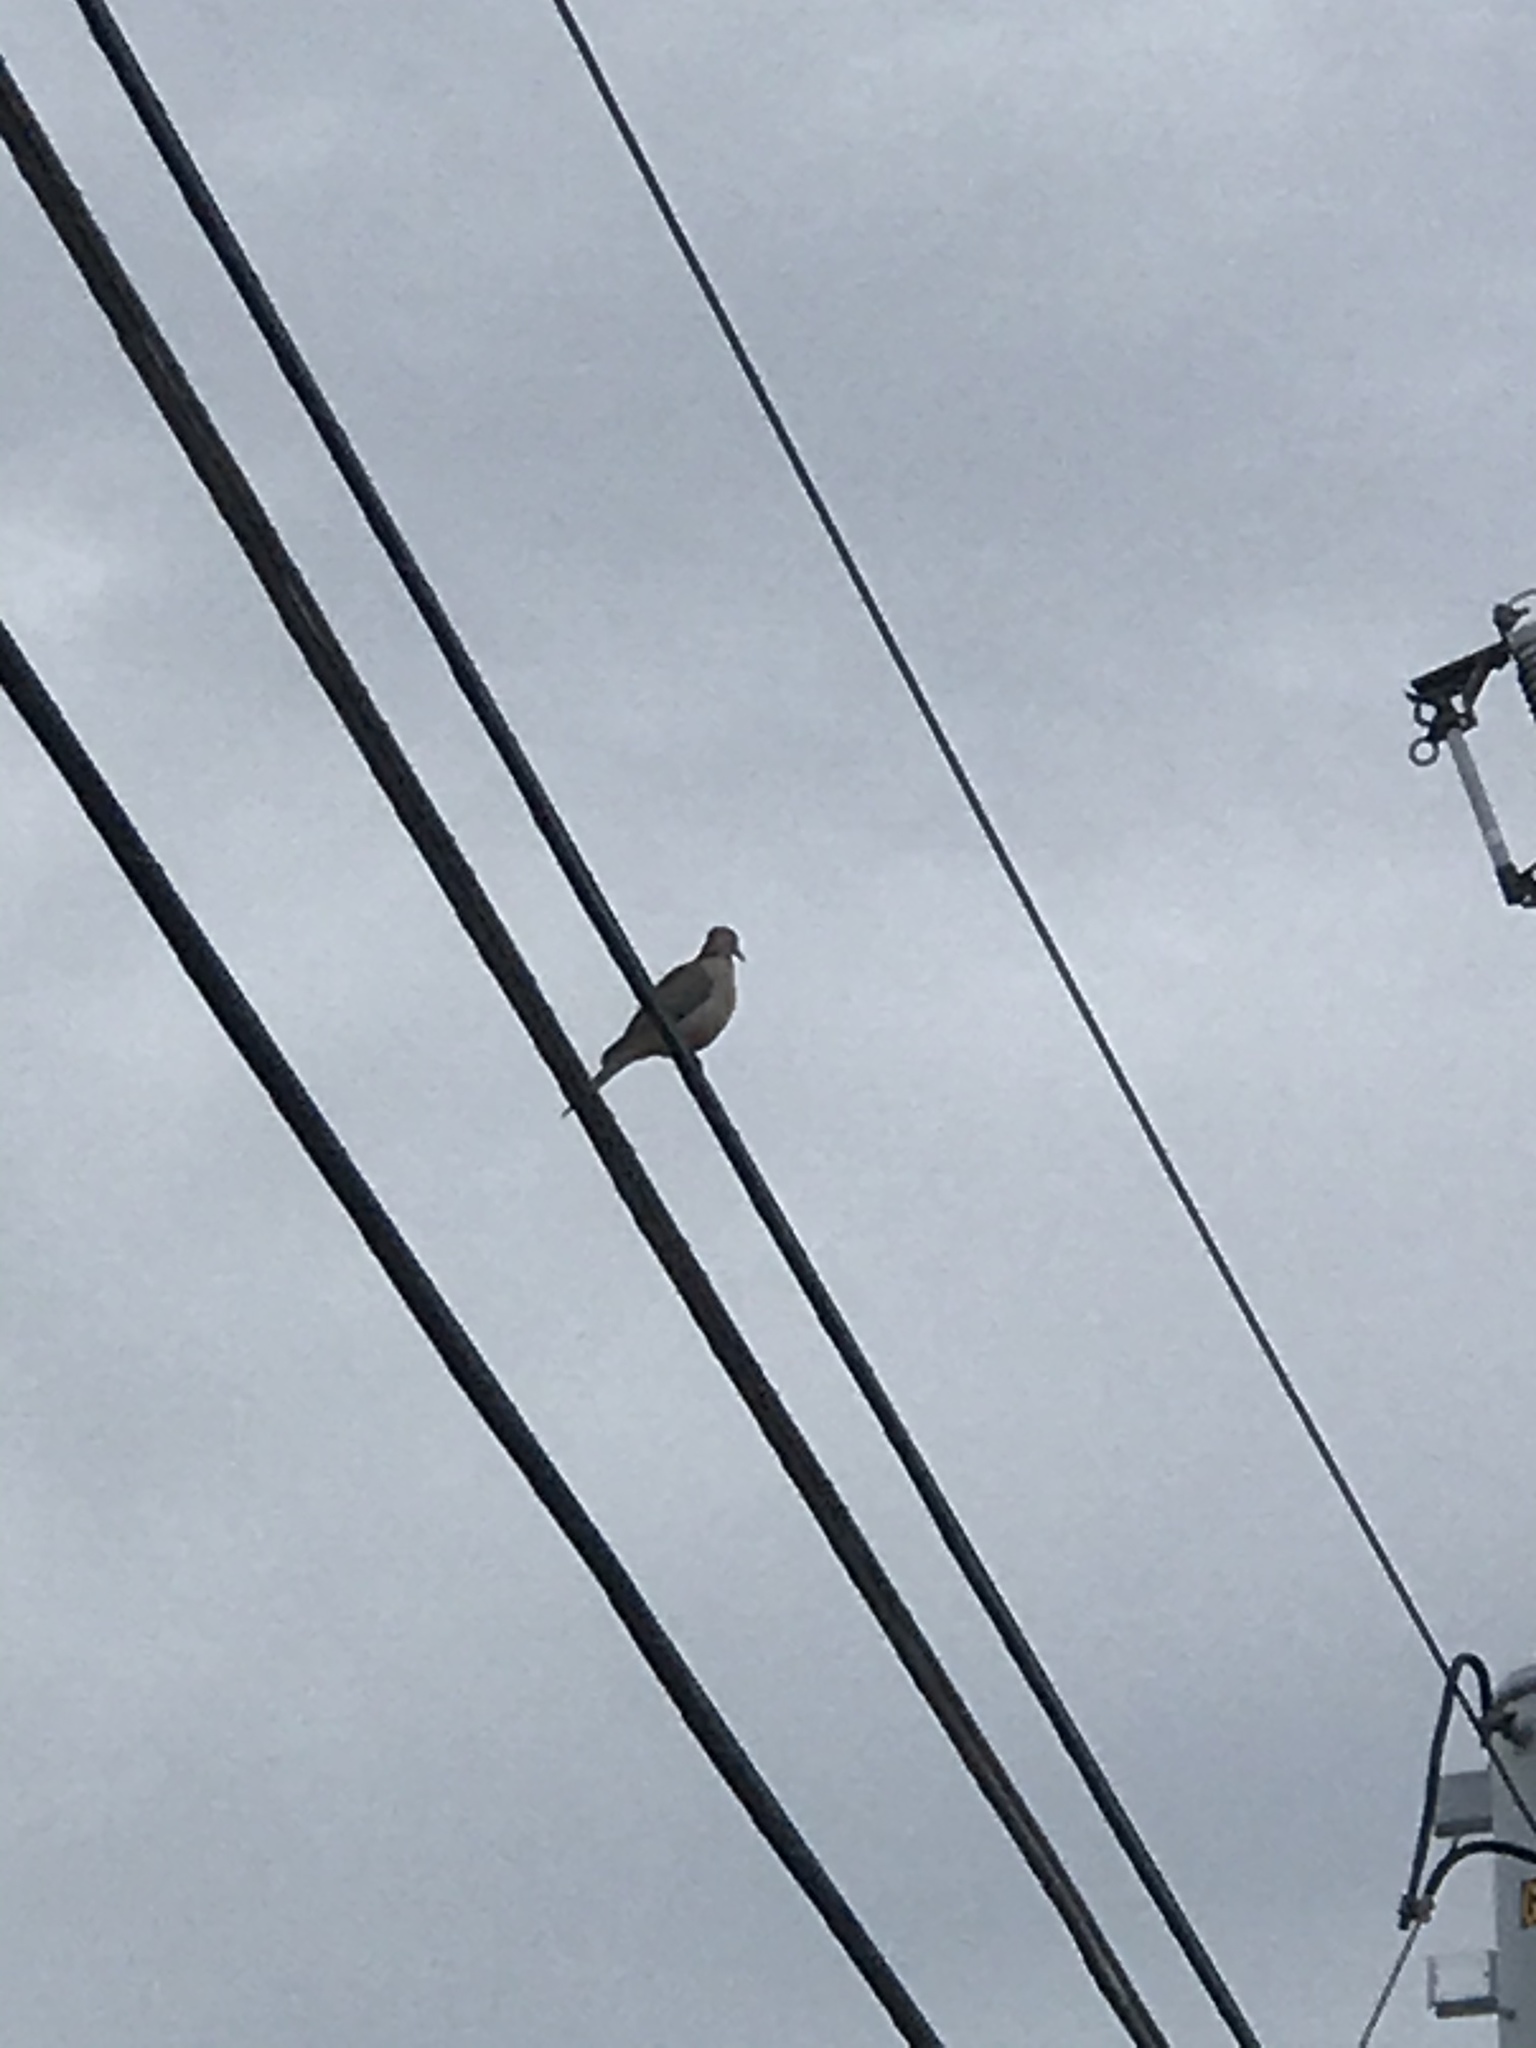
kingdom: Animalia
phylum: Chordata
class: Aves
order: Columbiformes
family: Columbidae
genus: Zenaida
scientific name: Zenaida macroura
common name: Mourning dove
